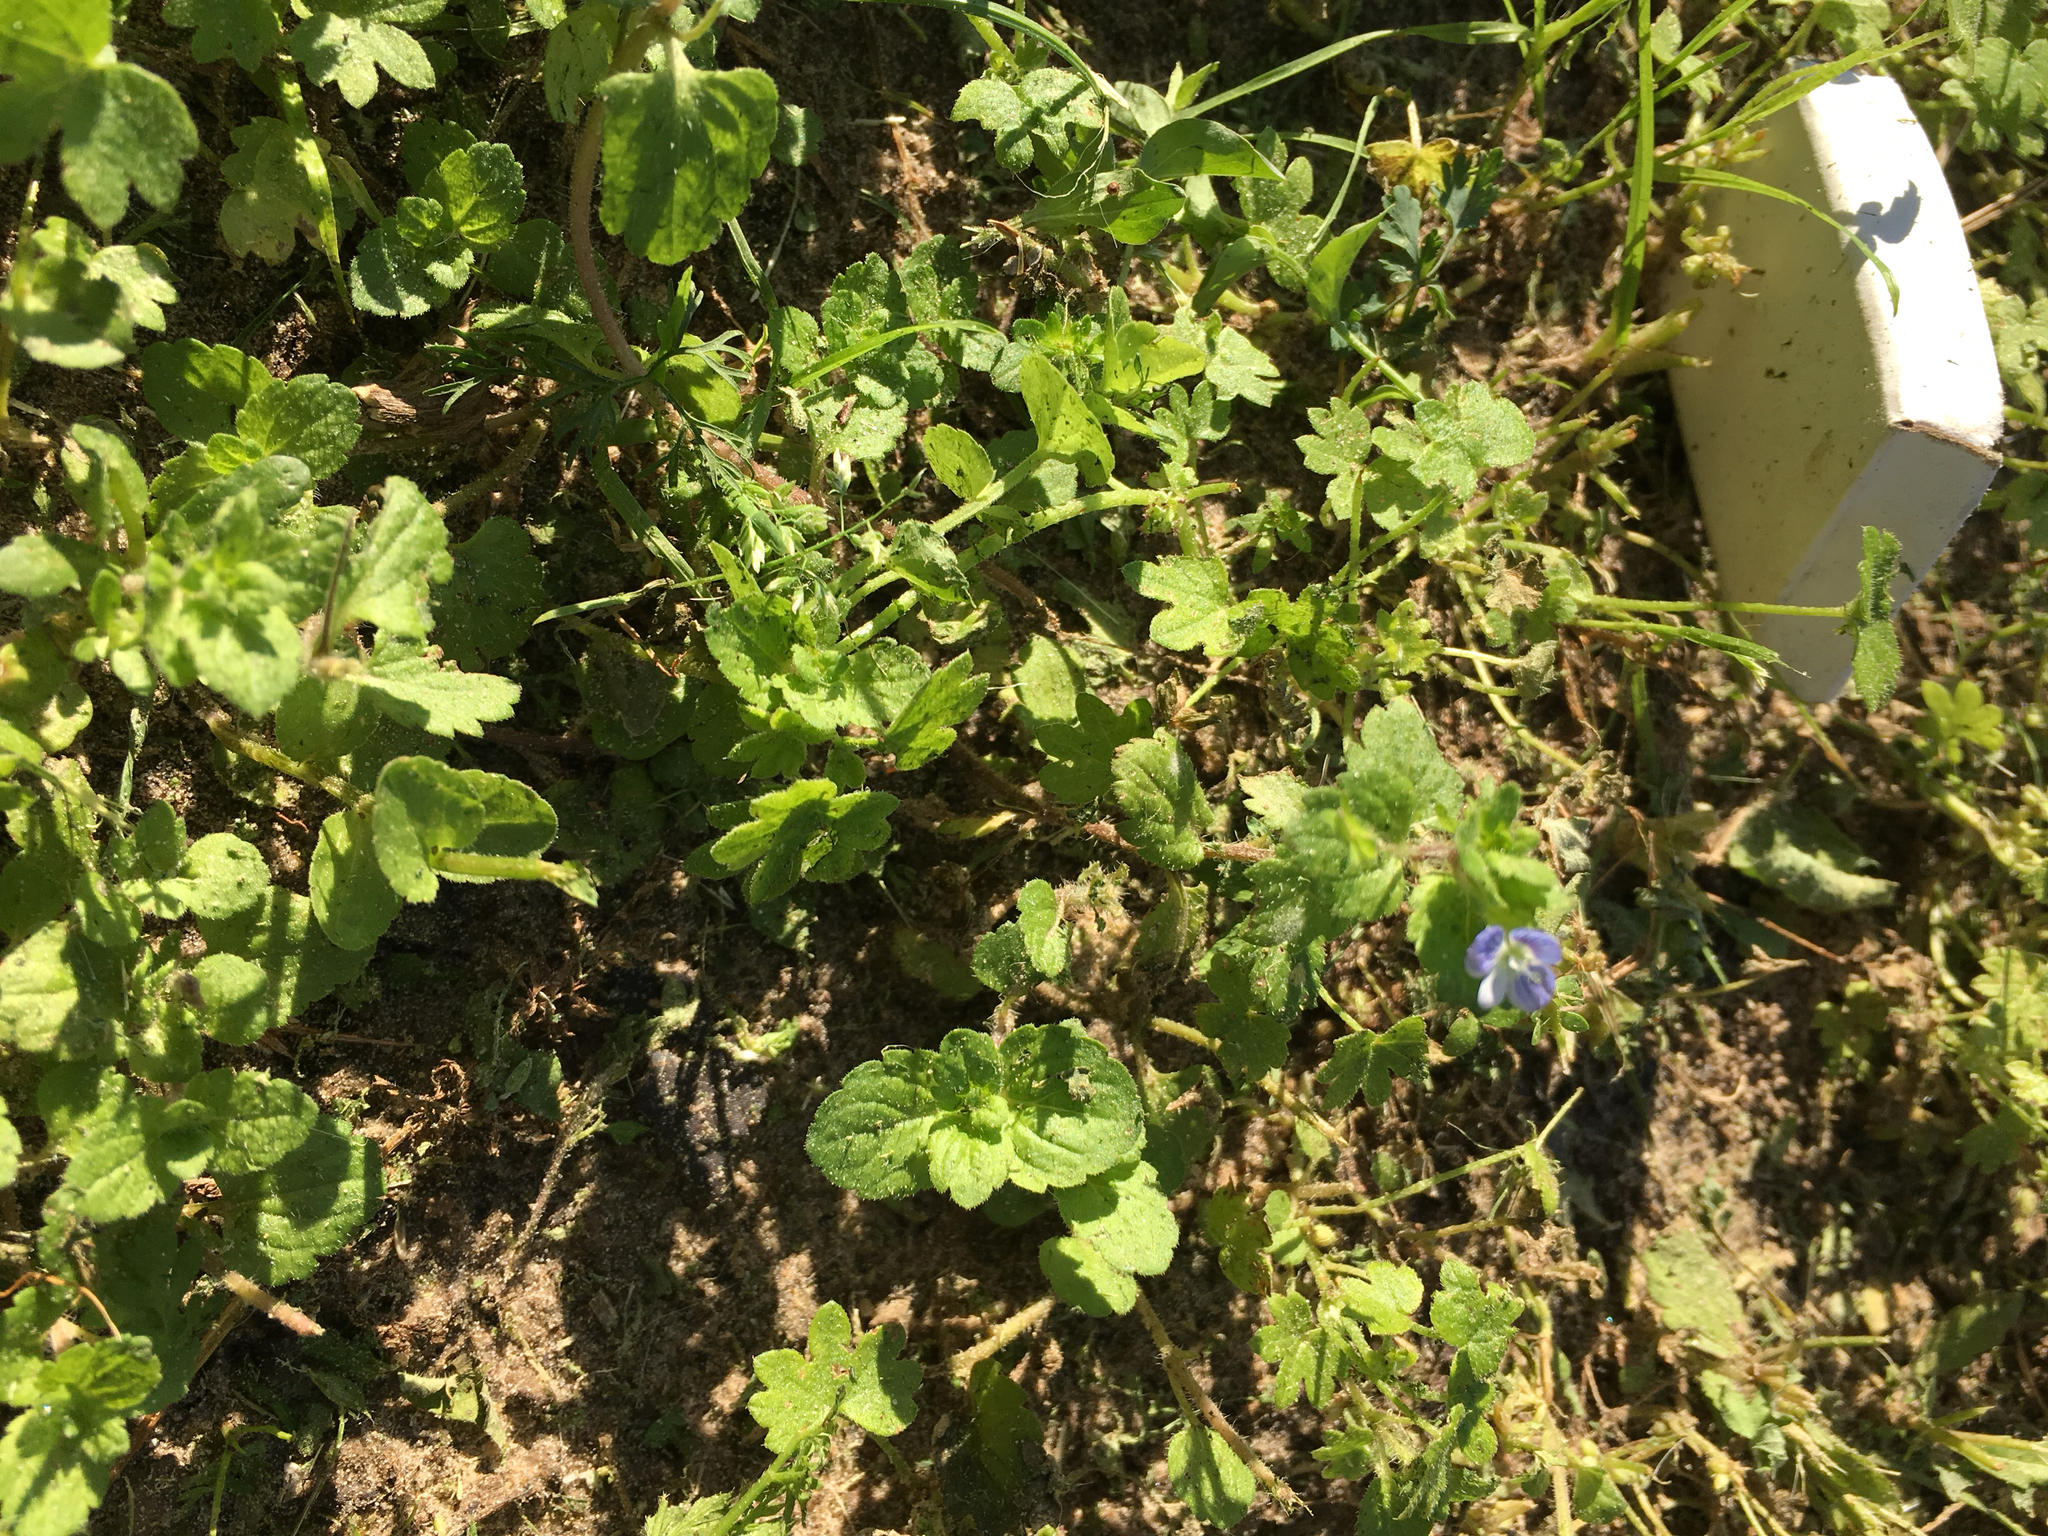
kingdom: Plantae
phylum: Tracheophyta
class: Magnoliopsida
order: Lamiales
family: Plantaginaceae
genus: Veronica
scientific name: Veronica persica
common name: Common field-speedwell
